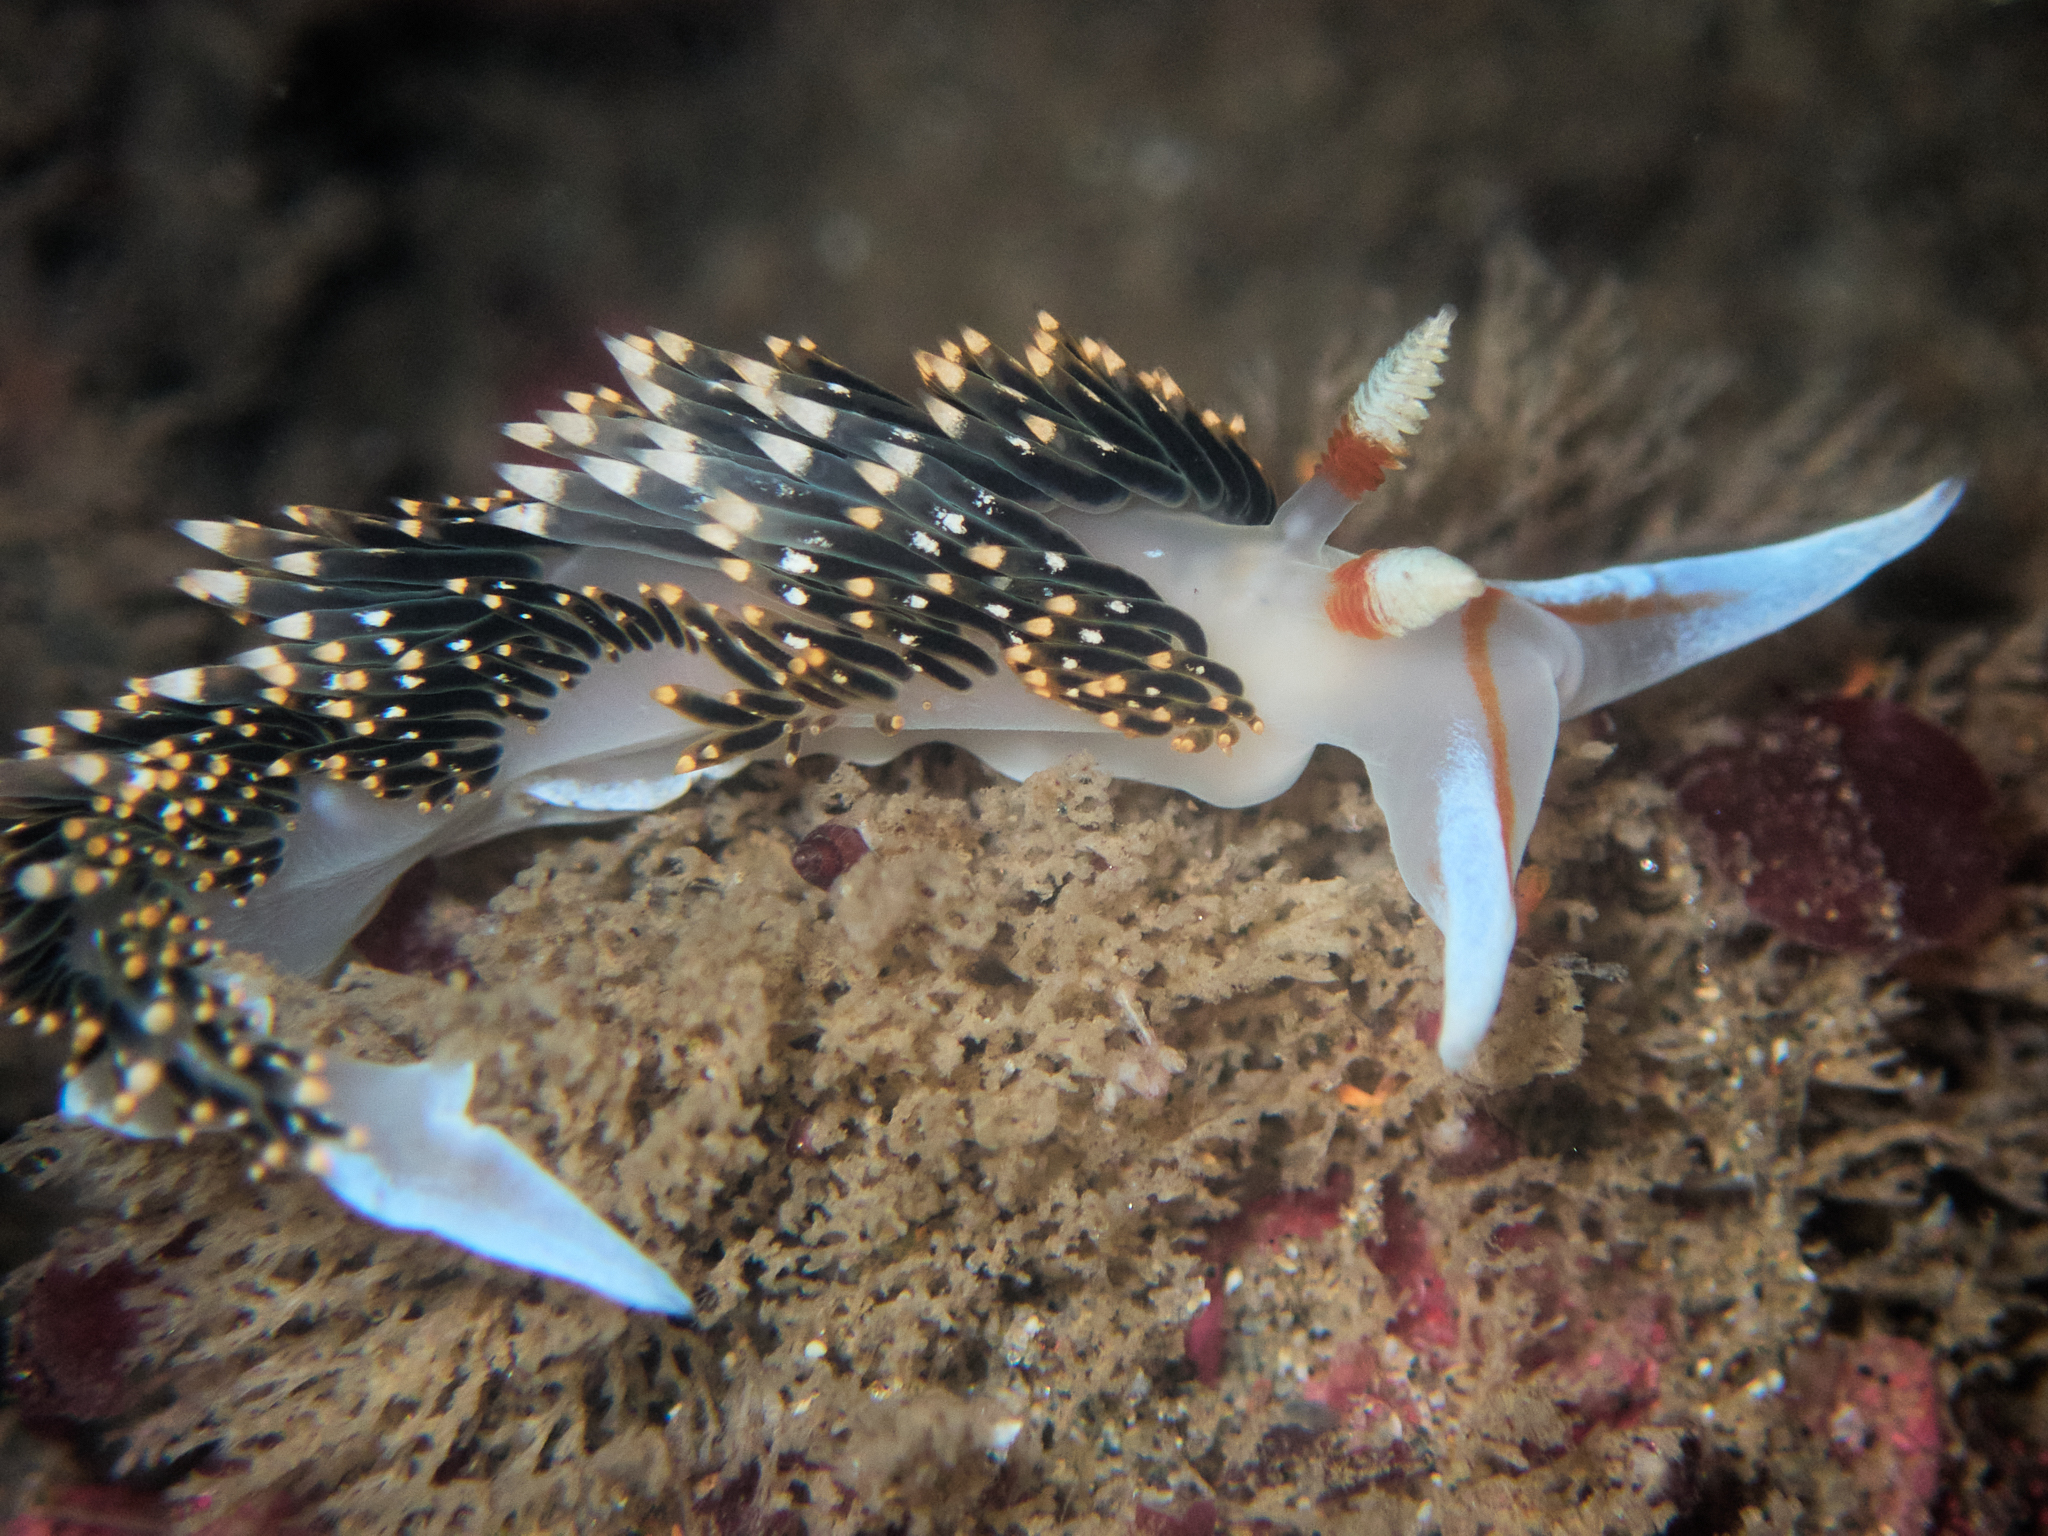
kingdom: Animalia
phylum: Mollusca
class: Gastropoda
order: Nudibranchia
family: Facelinidae
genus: Phidiana
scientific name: Phidiana hiltoni
